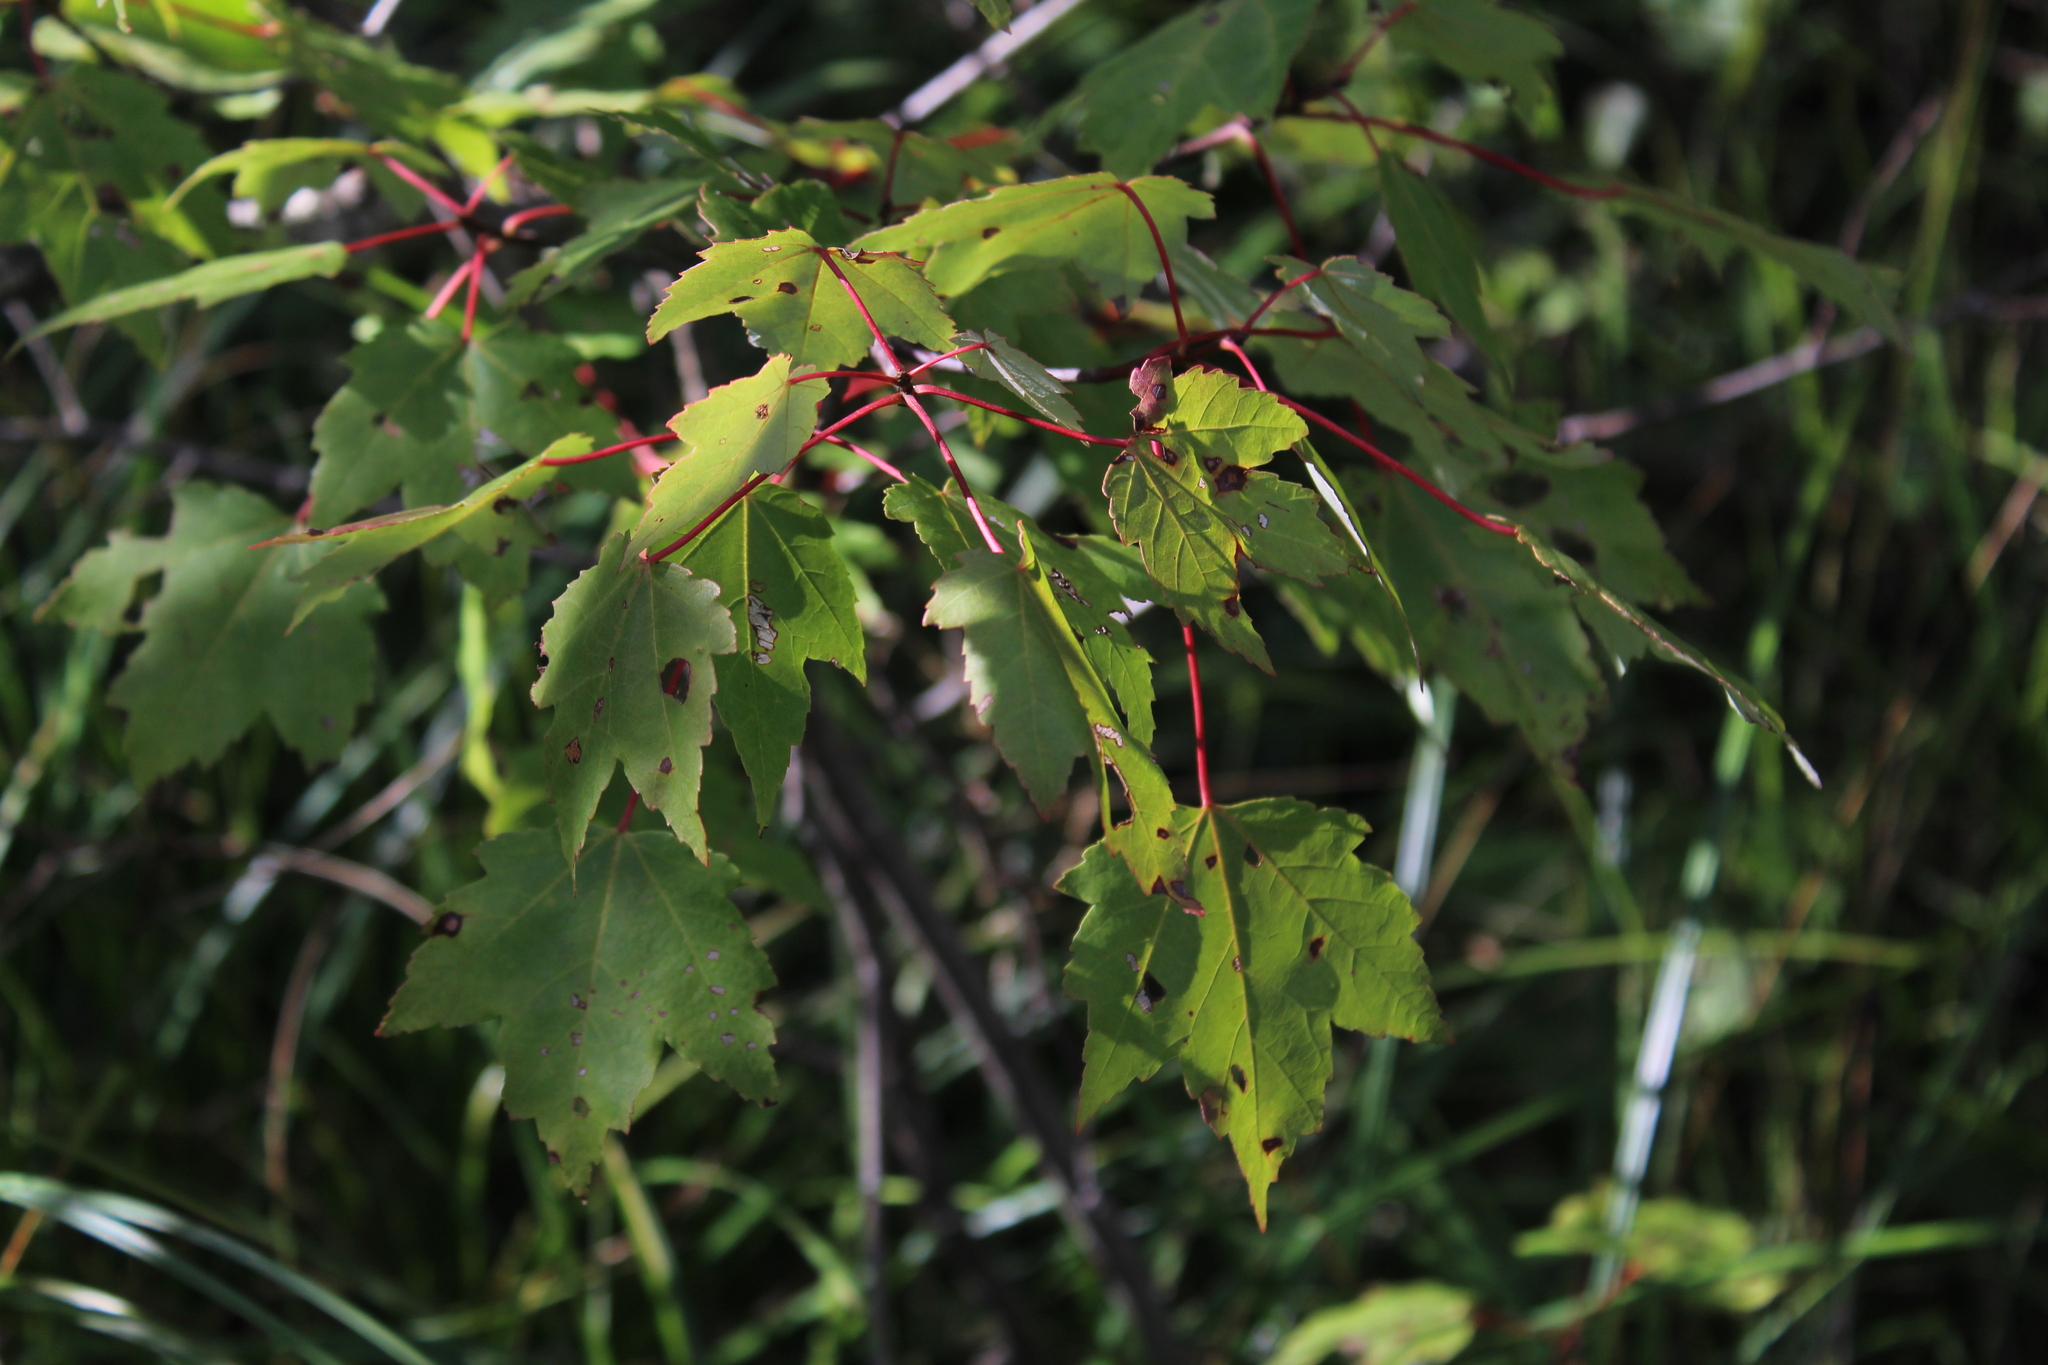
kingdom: Plantae
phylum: Tracheophyta
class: Magnoliopsida
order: Sapindales
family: Sapindaceae
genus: Acer
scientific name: Acer rubrum
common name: Red maple
